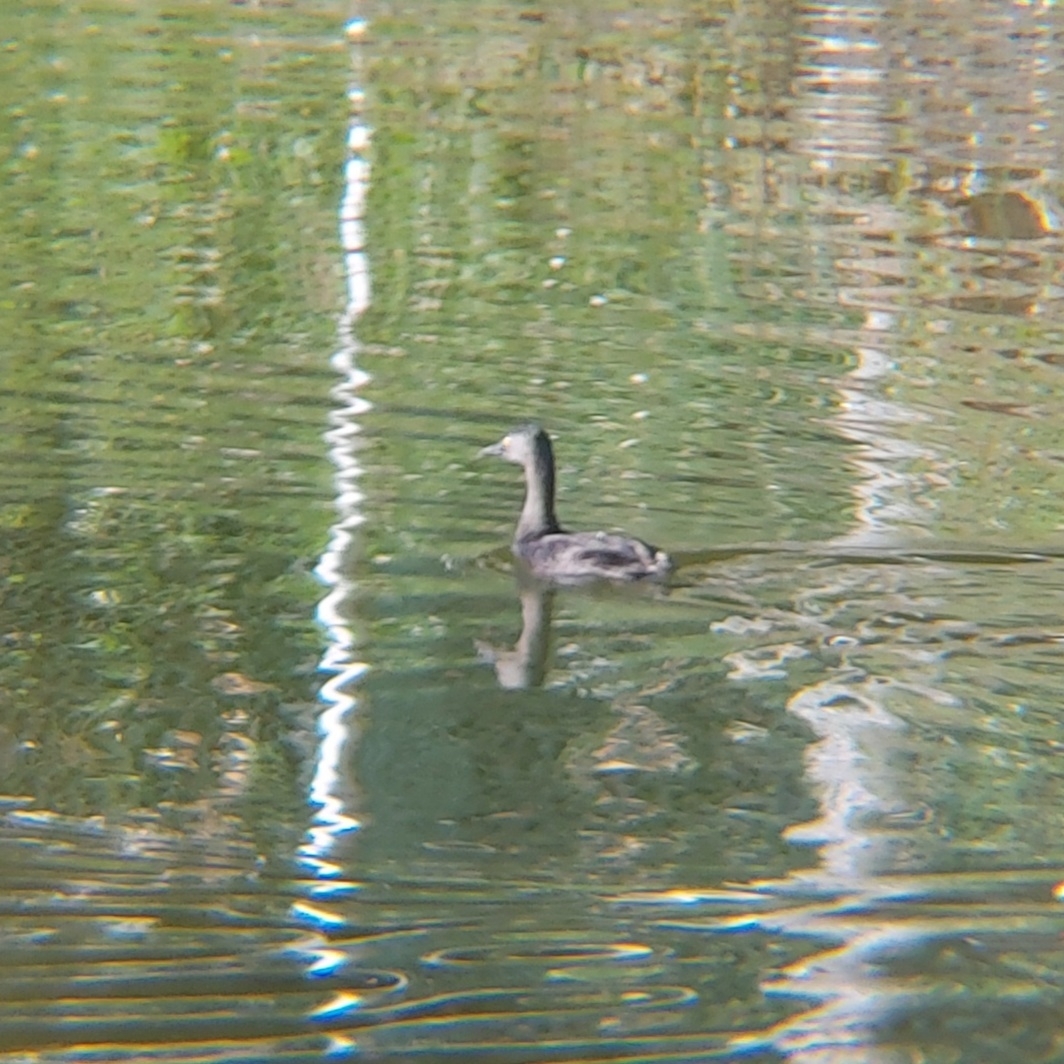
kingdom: Animalia
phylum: Chordata
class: Aves
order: Podicipediformes
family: Podicipedidae
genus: Tachybaptus
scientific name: Tachybaptus dominicus
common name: Least grebe
